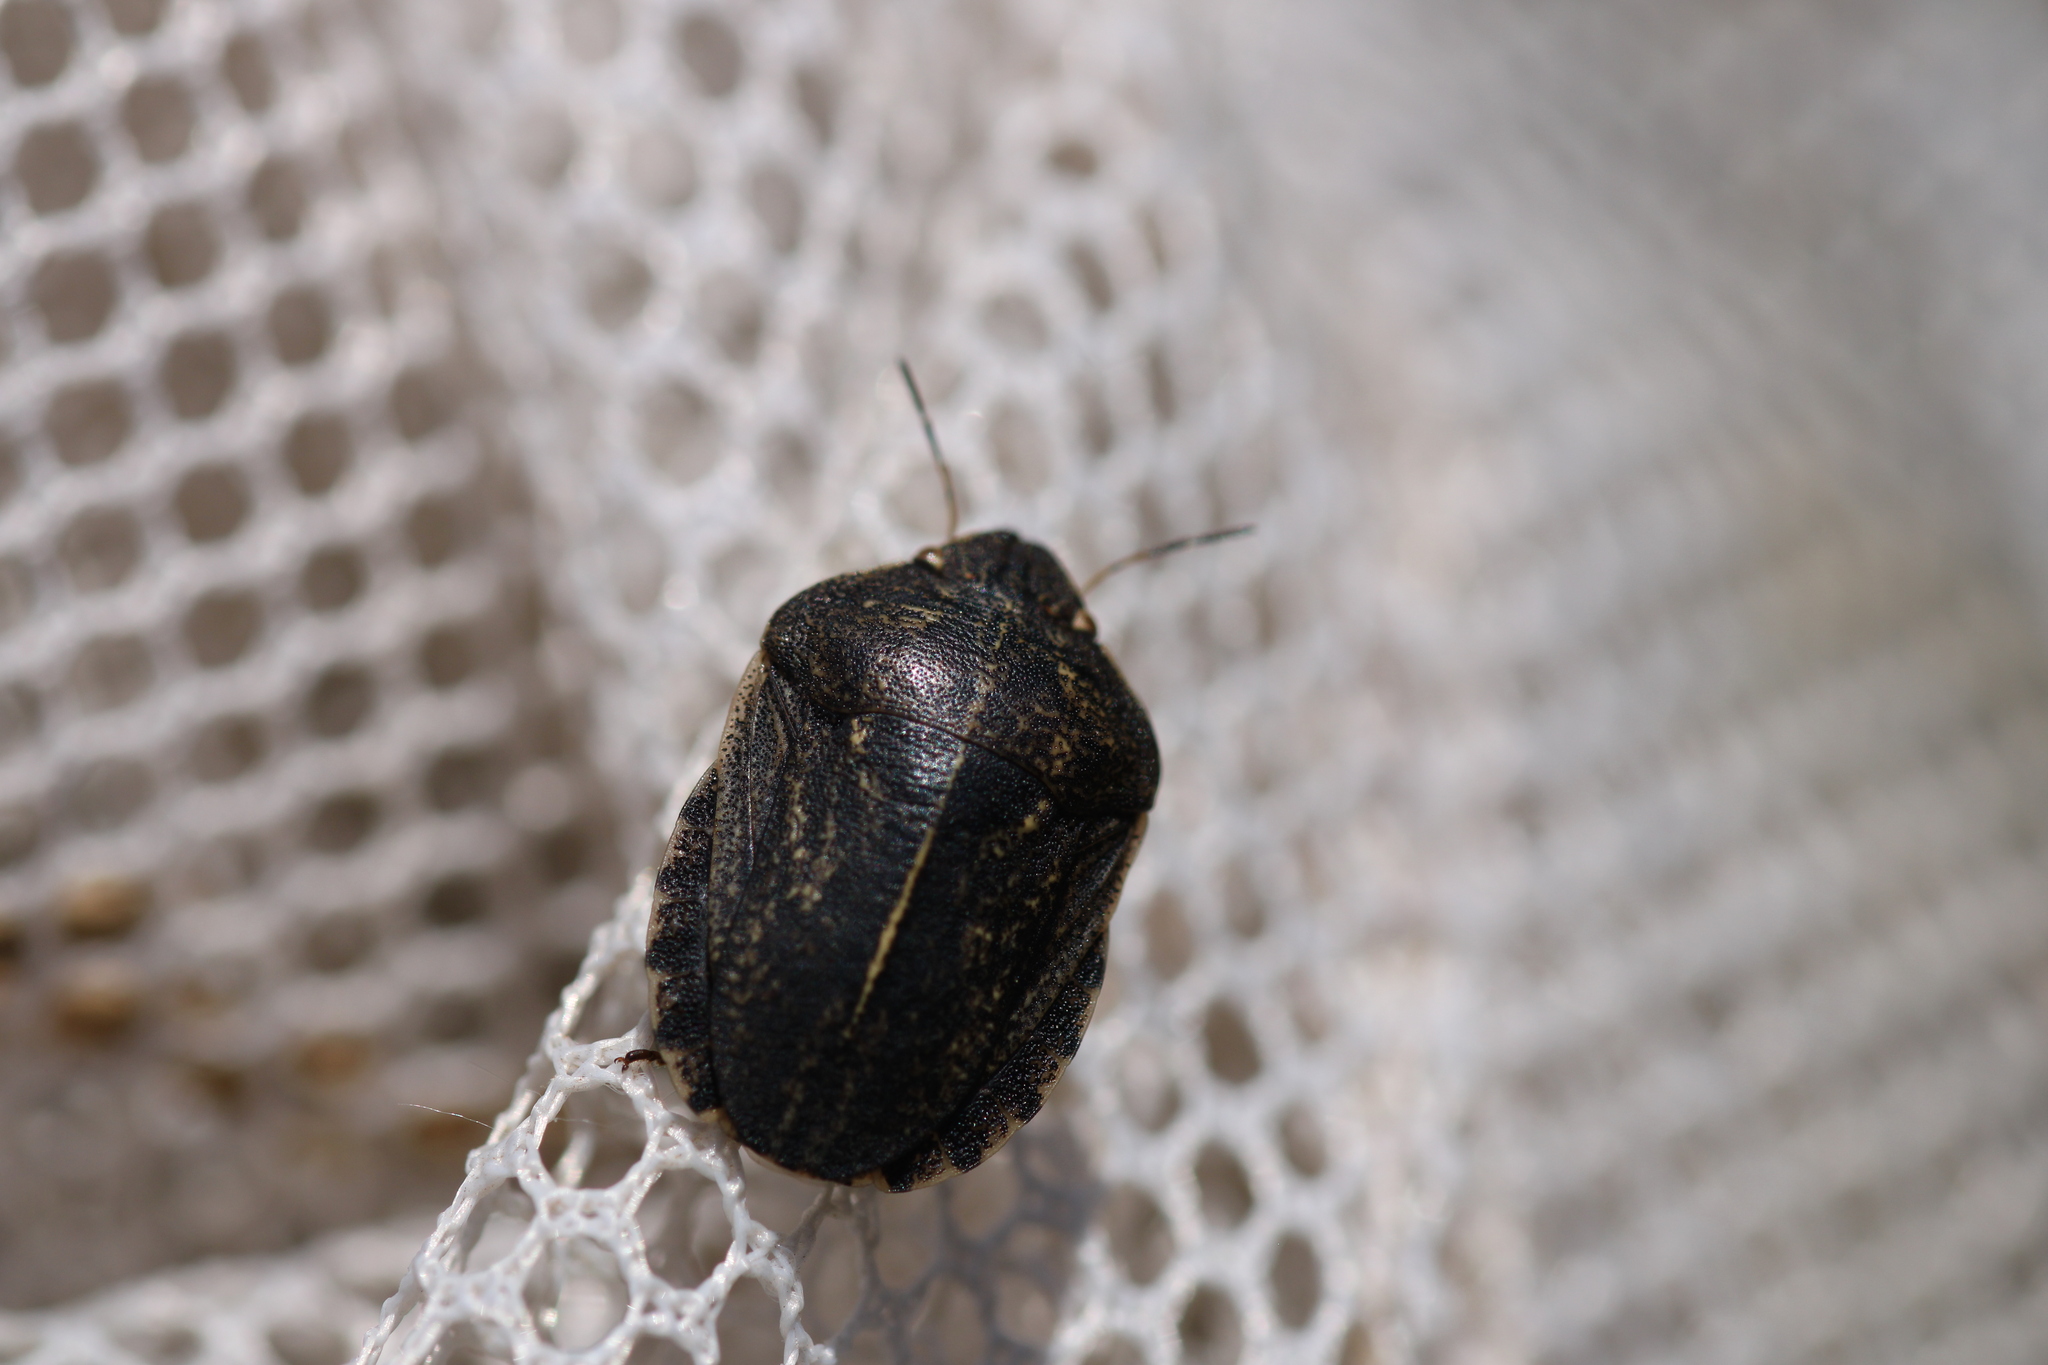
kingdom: Animalia
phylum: Arthropoda
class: Insecta
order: Hemiptera
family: Scutelleridae
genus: Eurygaster
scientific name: Eurygaster austriaca
